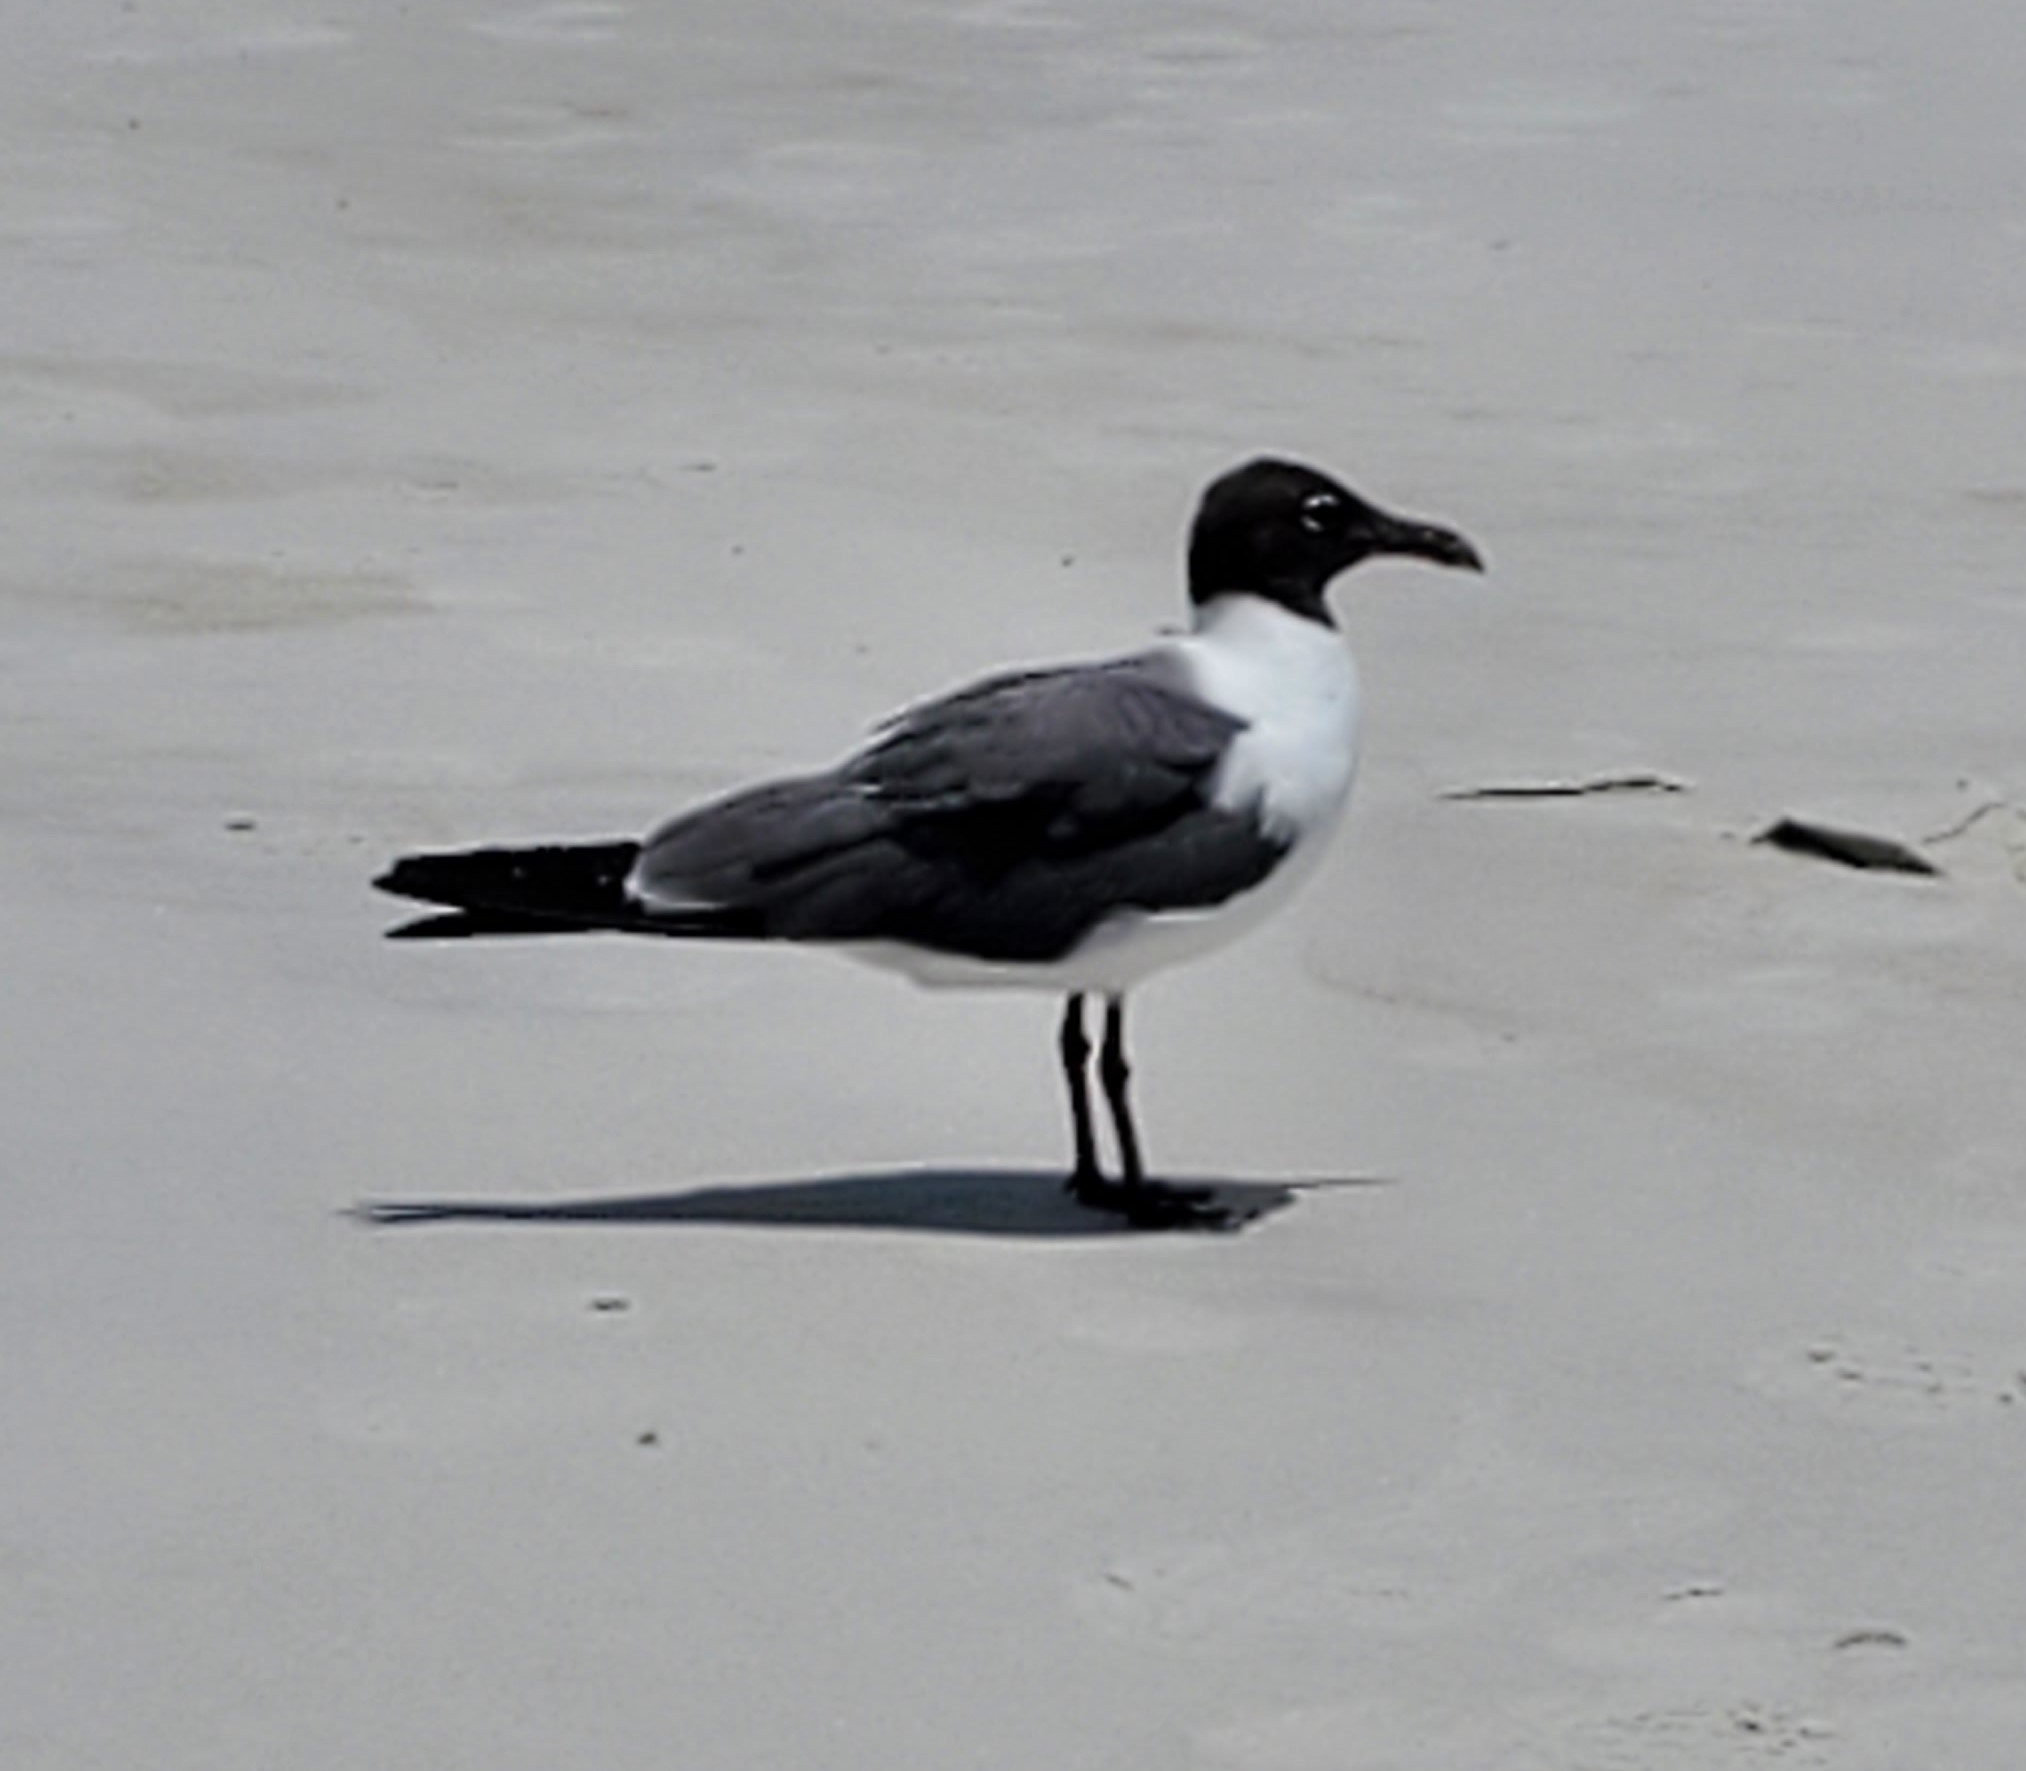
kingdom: Animalia
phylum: Chordata
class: Aves
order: Charadriiformes
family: Laridae
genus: Leucophaeus
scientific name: Leucophaeus atricilla
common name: Laughing gull
